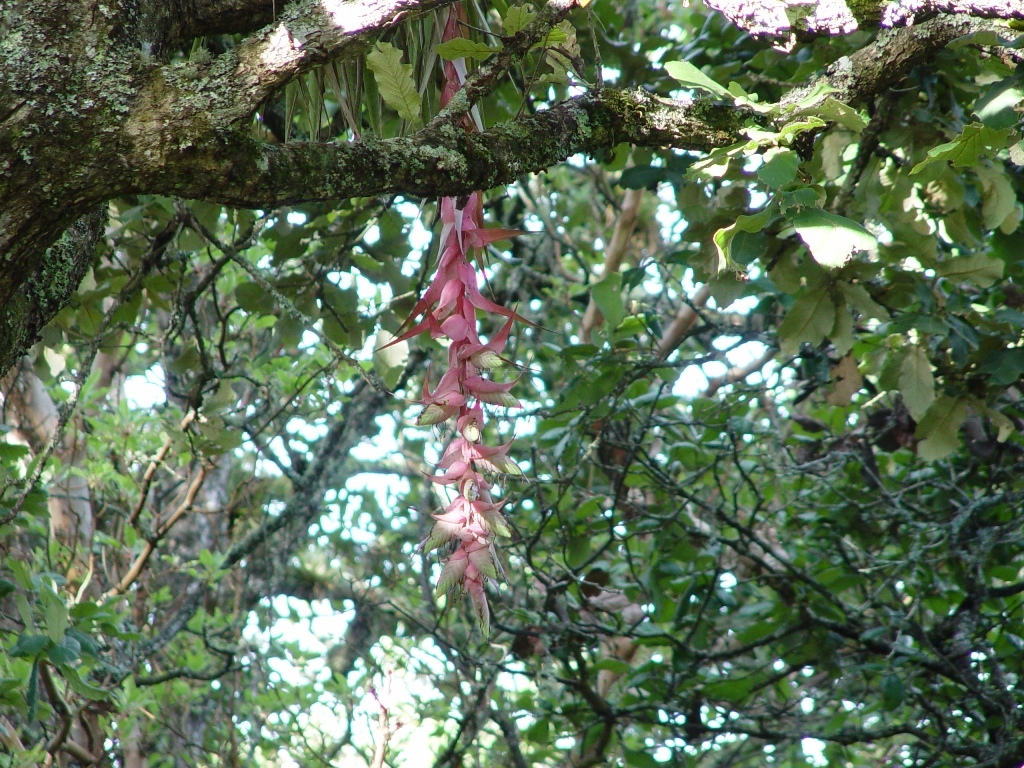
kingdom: Plantae
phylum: Tracheophyta
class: Liliopsida
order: Poales
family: Bromeliaceae
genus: Tillandsia
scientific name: Tillandsia eizii
